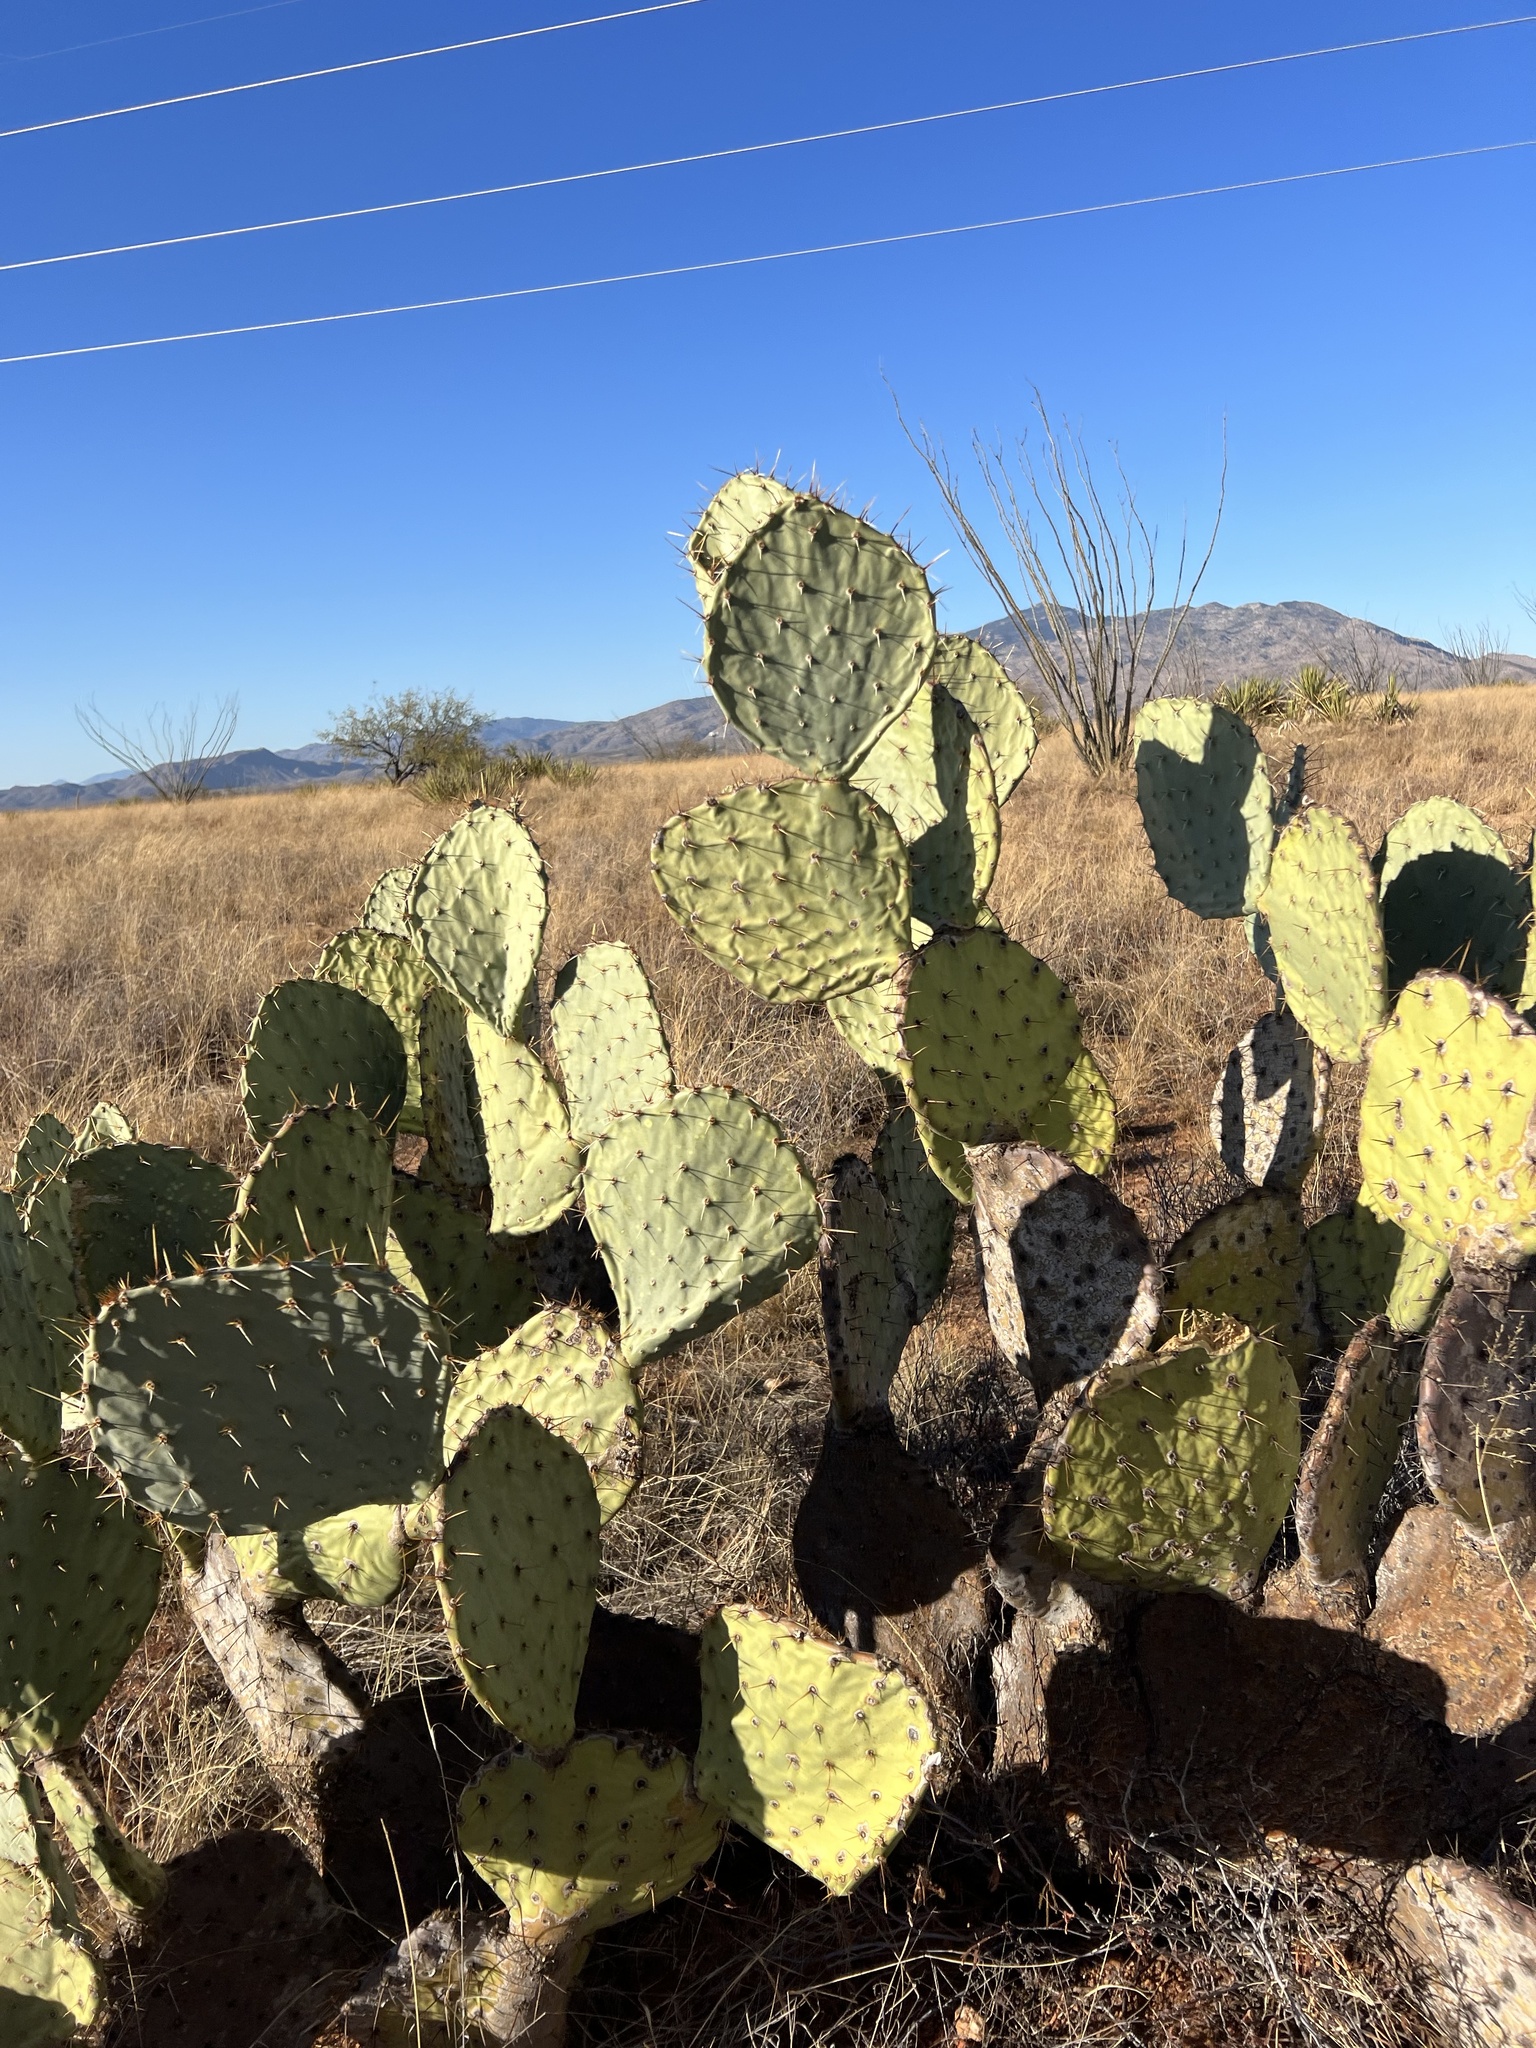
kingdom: Plantae
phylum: Tracheophyta
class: Magnoliopsida
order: Caryophyllales
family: Cactaceae
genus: Opuntia
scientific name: Opuntia engelmannii
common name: Cactus-apple
